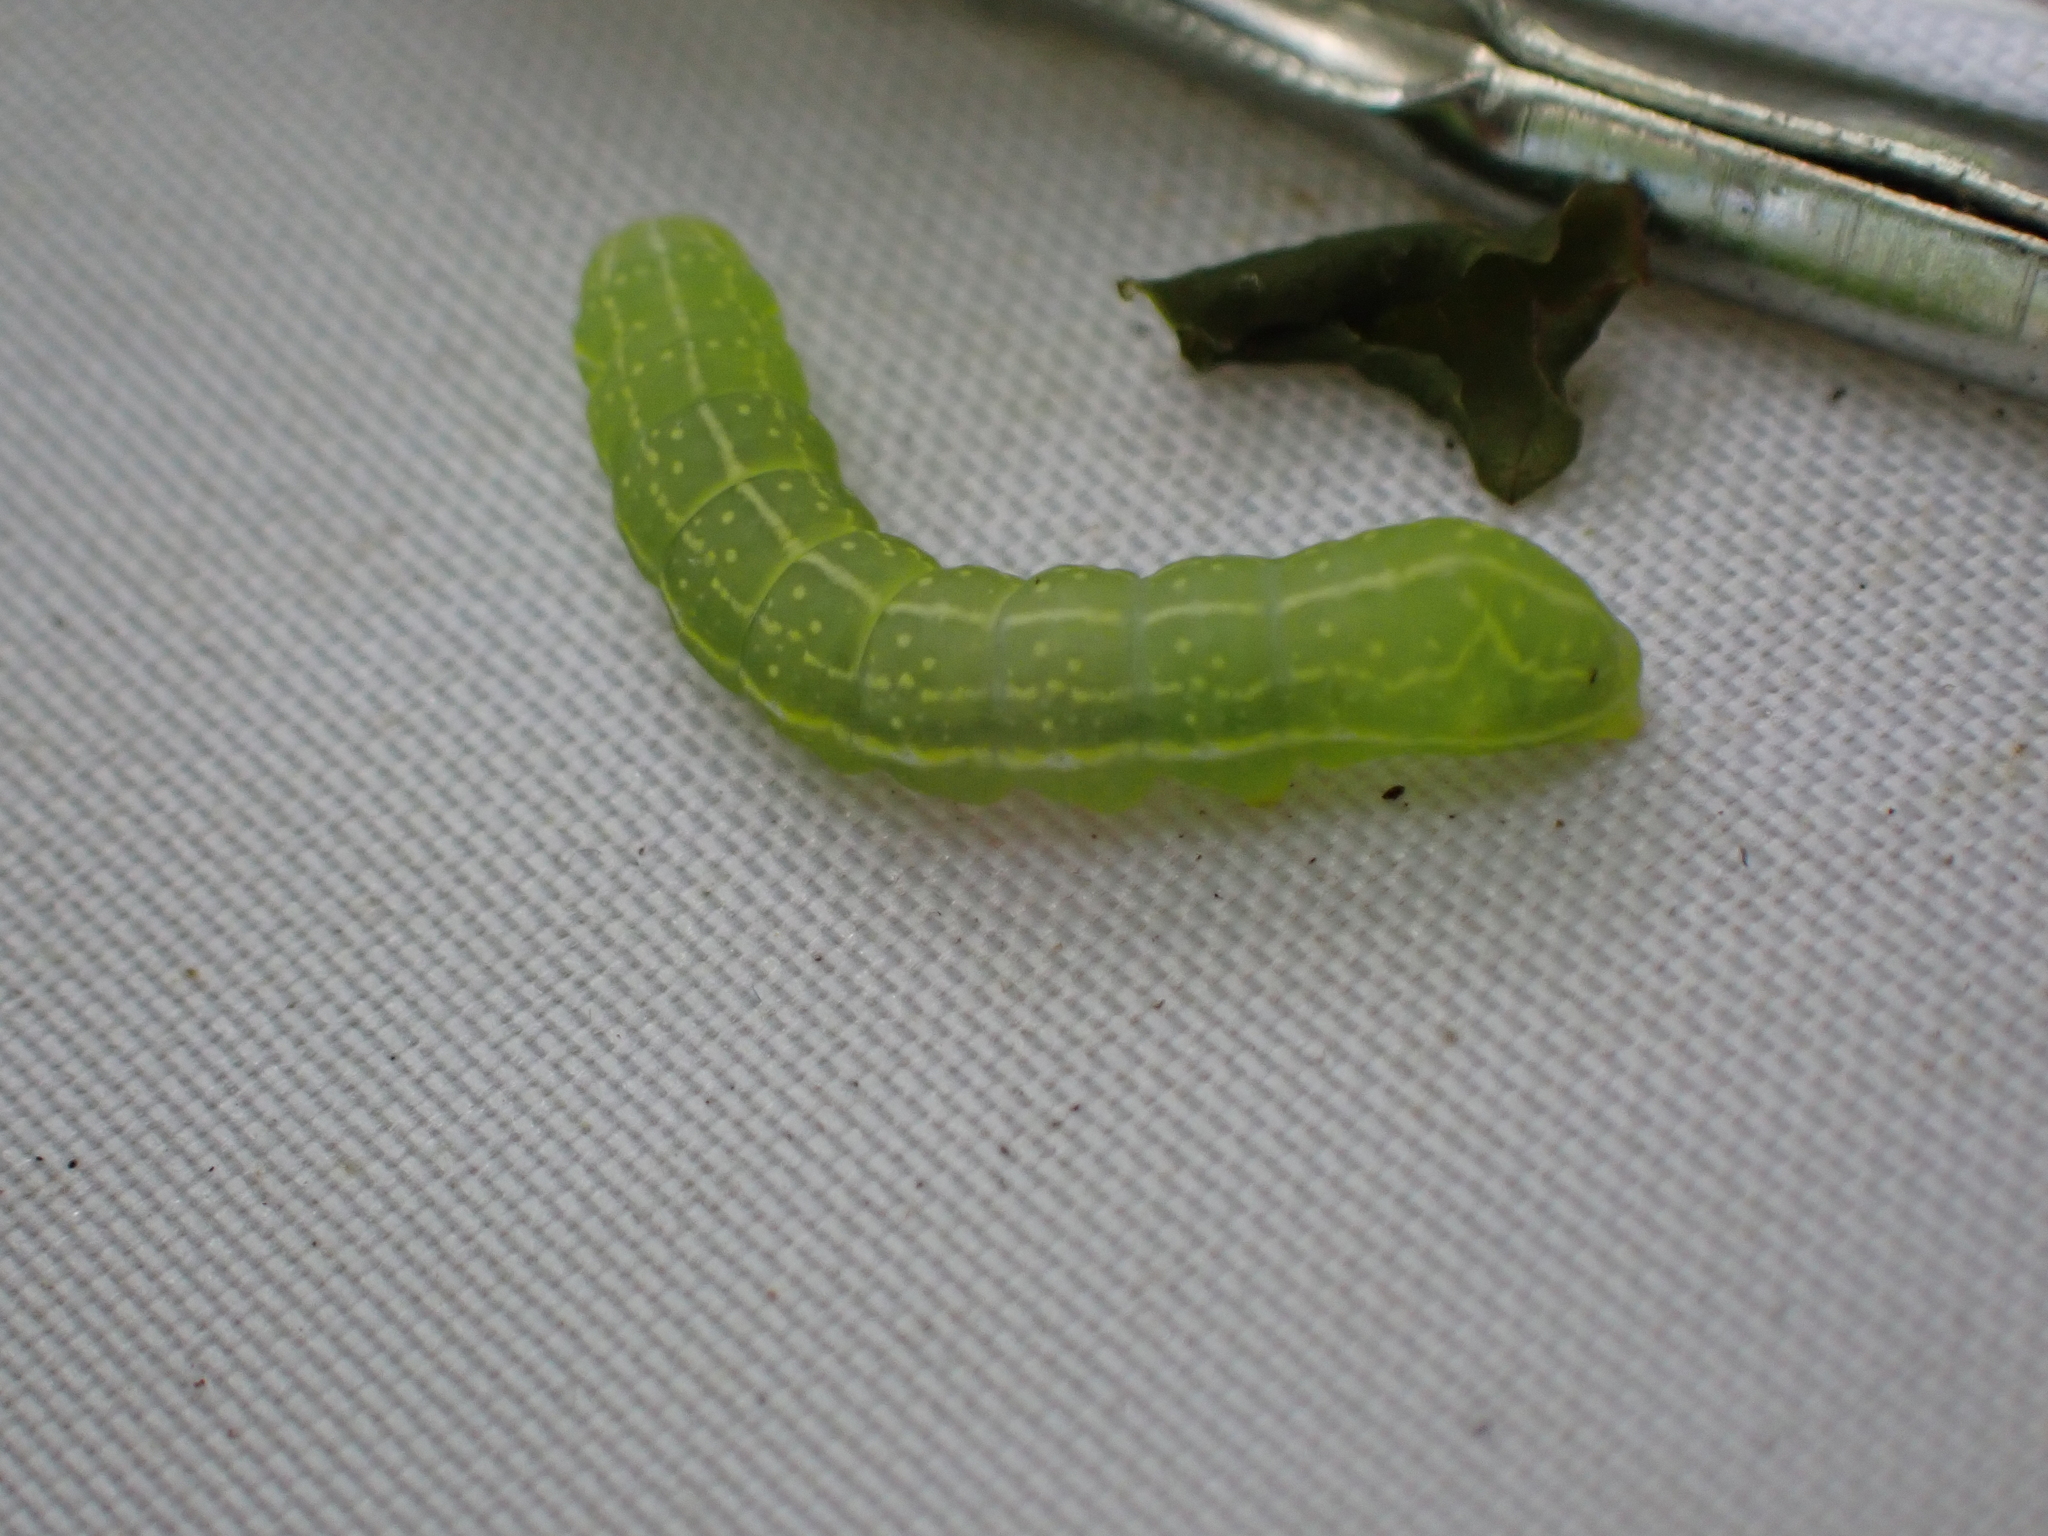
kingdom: Animalia
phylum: Arthropoda
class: Insecta
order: Lepidoptera
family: Noctuidae
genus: Amphipyra
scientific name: Amphipyra pyramidoides
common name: American copper underwing
